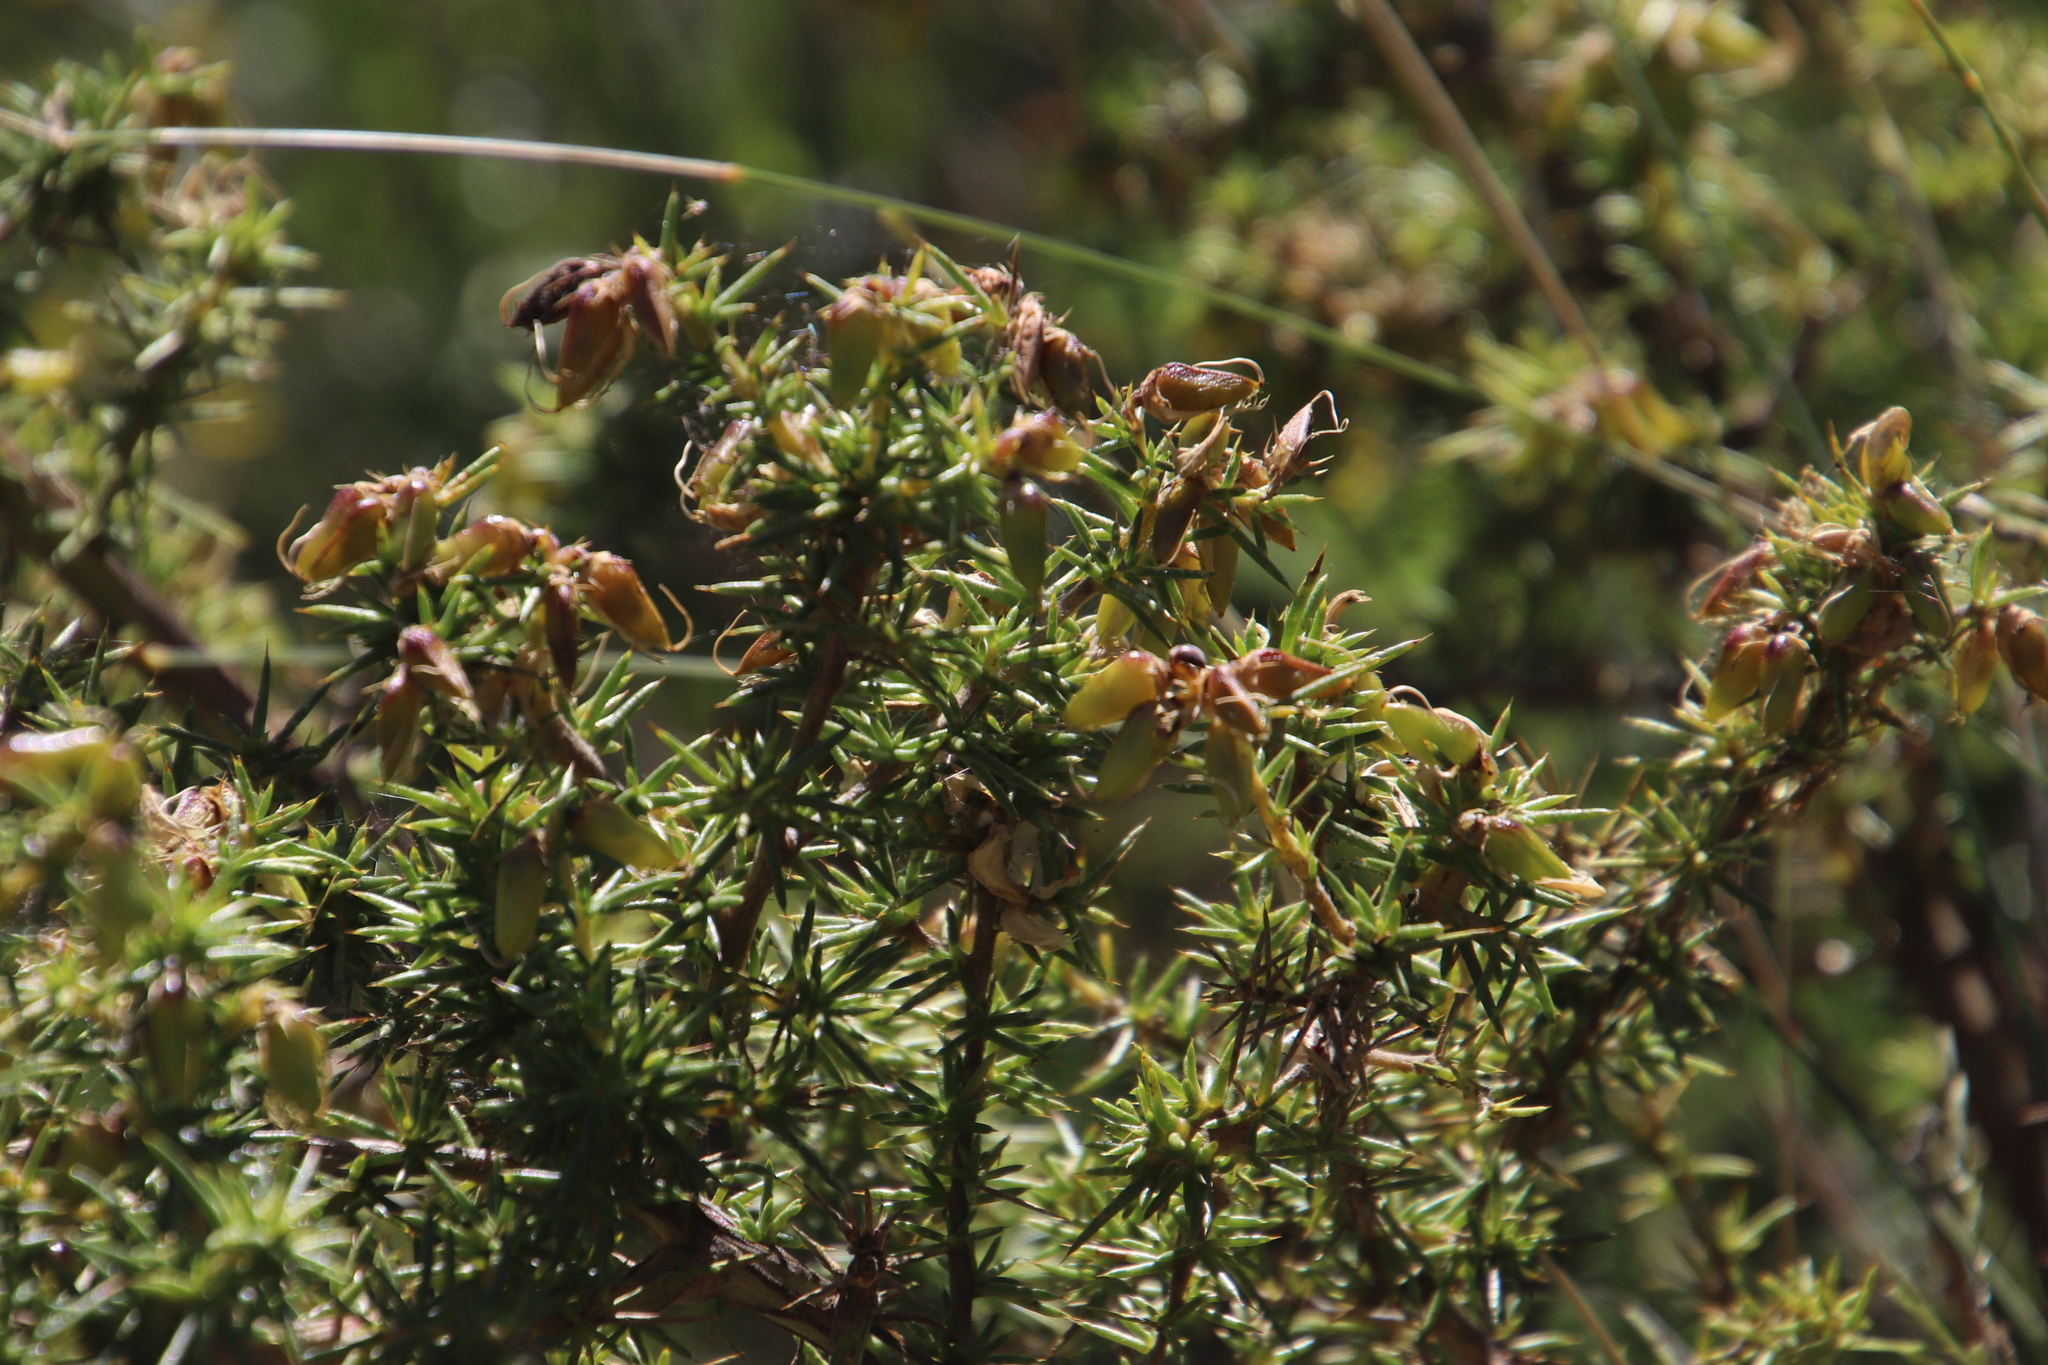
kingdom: Plantae
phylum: Tracheophyta
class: Magnoliopsida
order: Fabales
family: Fabaceae
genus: Aspalathus
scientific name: Aspalathus astroites
